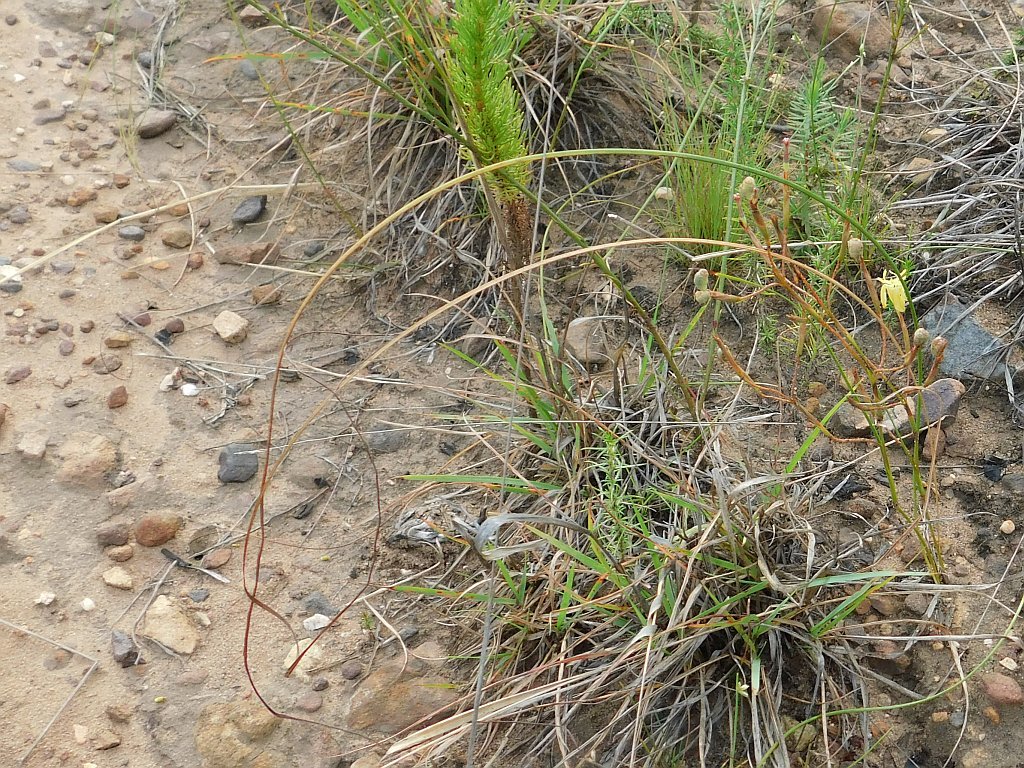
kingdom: Plantae
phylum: Tracheophyta
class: Liliopsida
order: Asparagales
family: Iridaceae
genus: Moraea
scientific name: Moraea inconspicua
